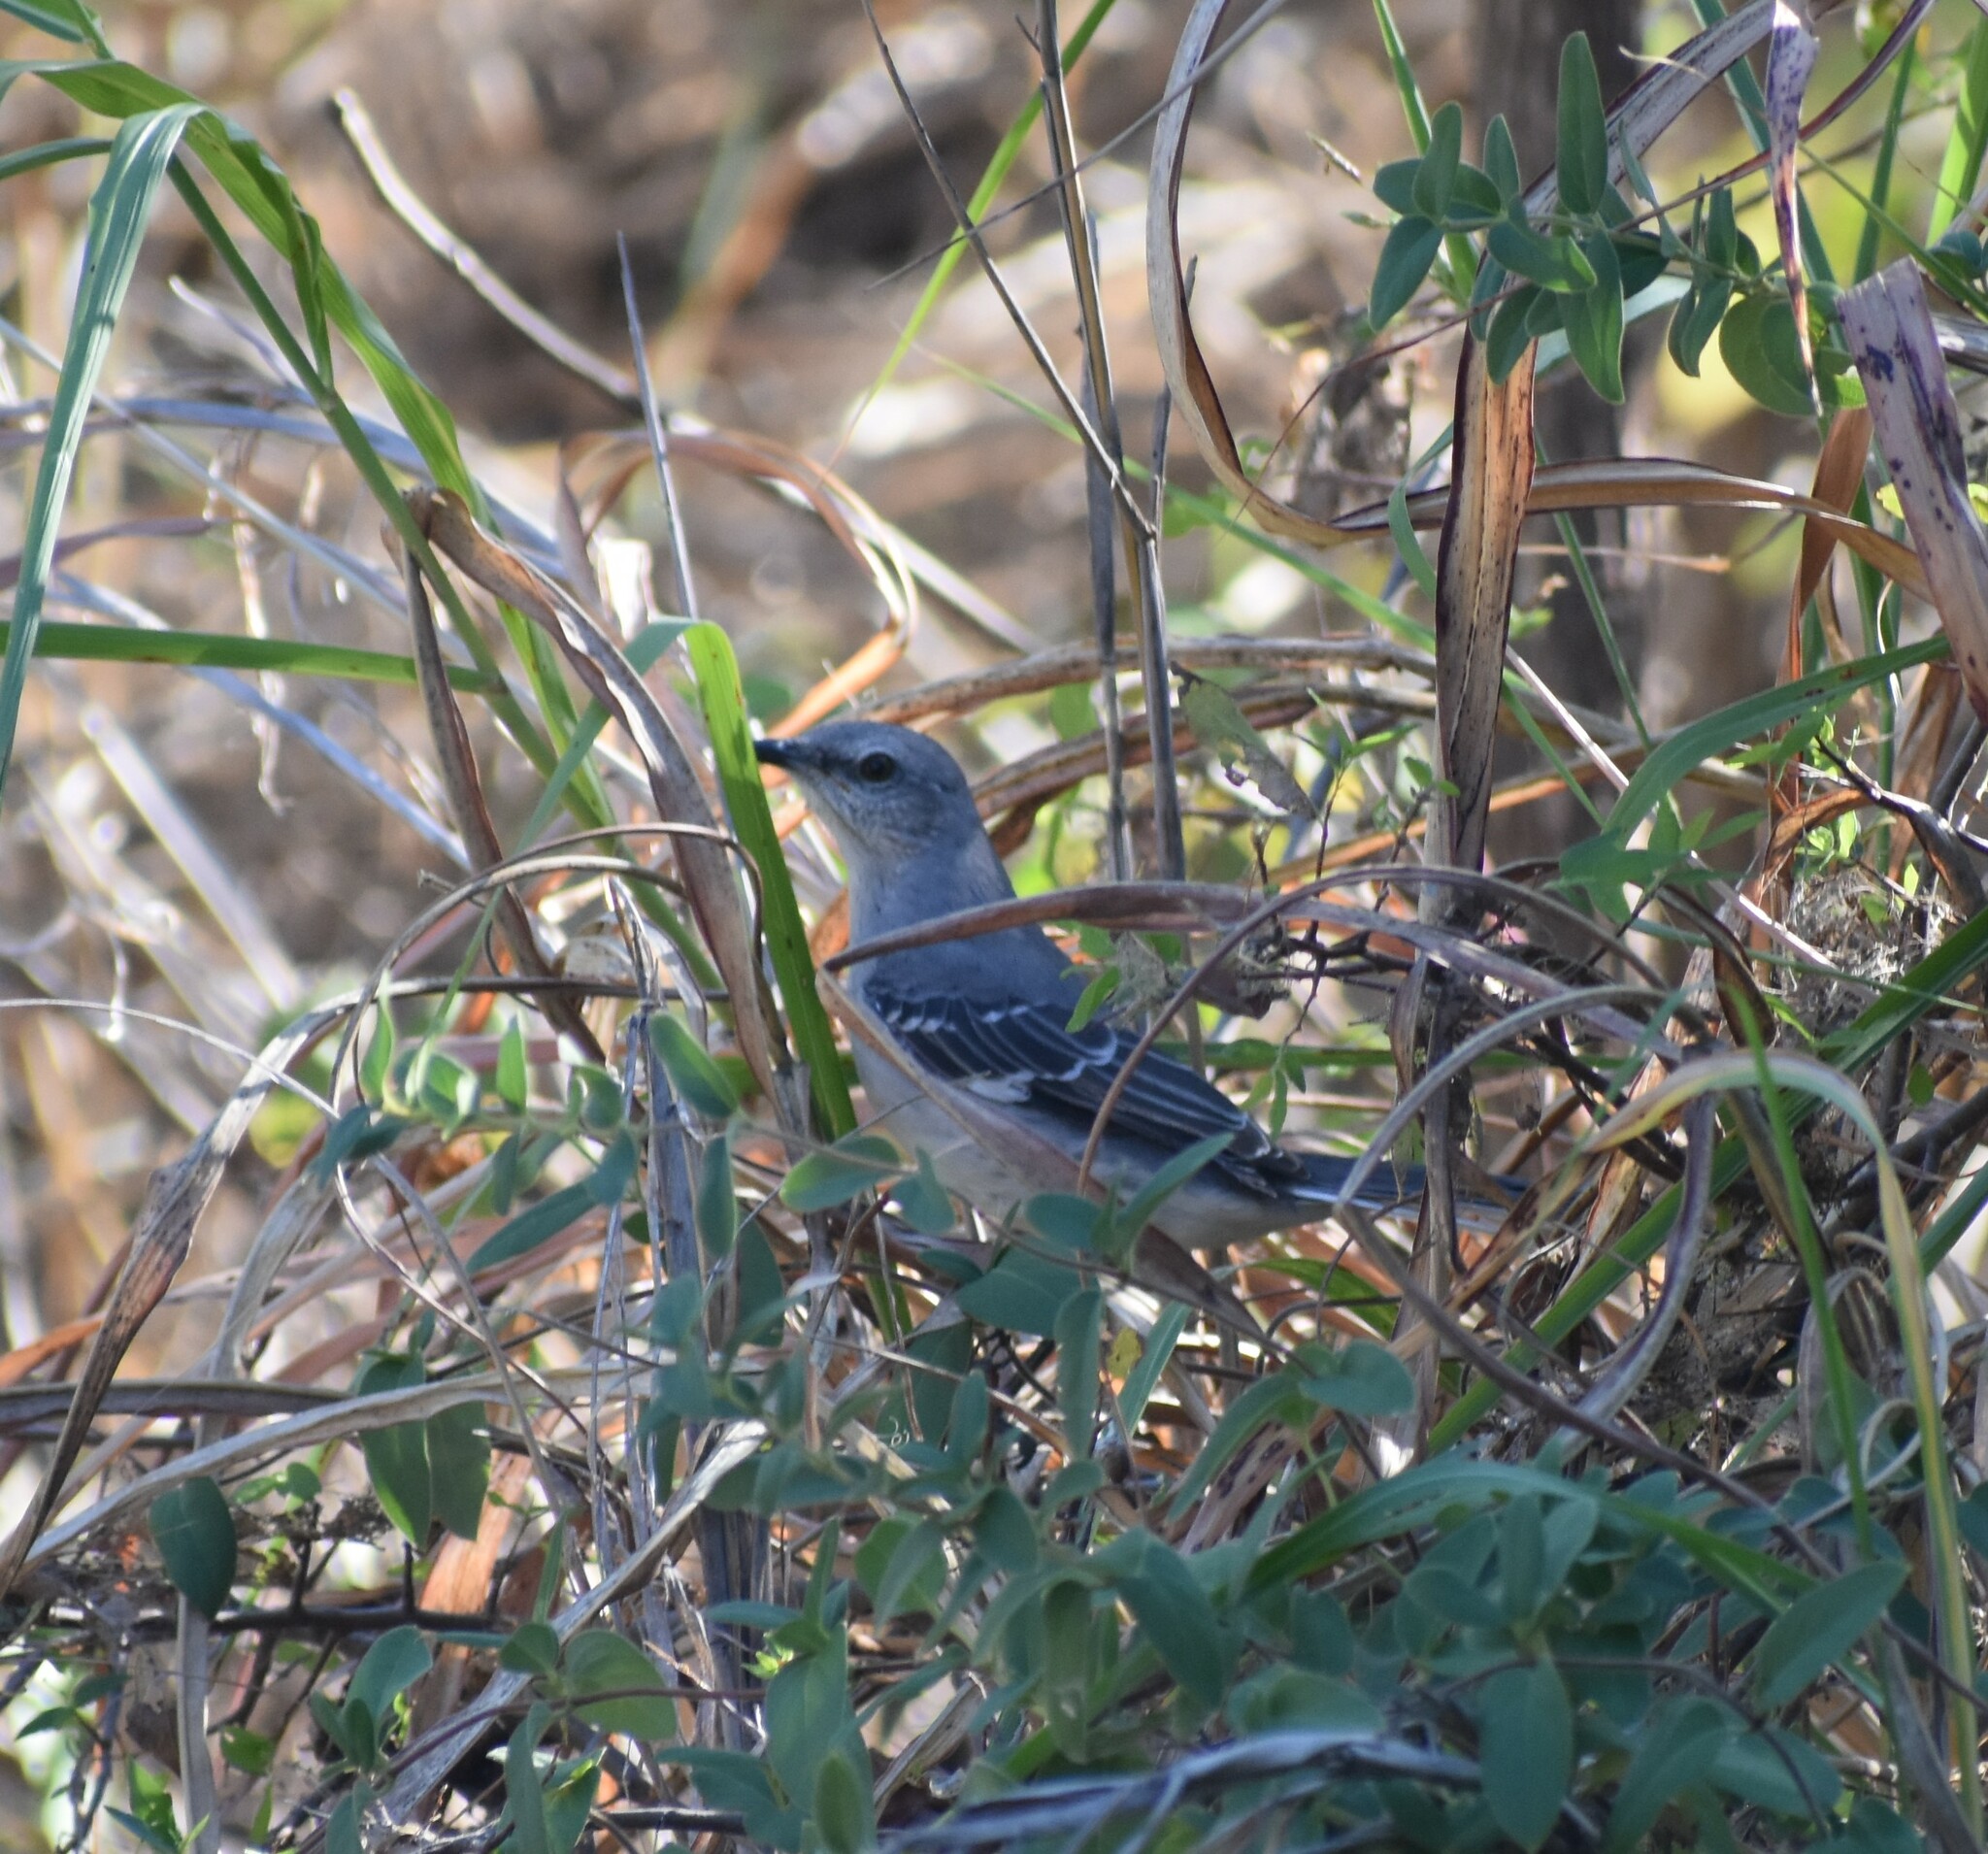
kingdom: Animalia
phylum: Chordata
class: Aves
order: Passeriformes
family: Mimidae
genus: Mimus
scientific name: Mimus polyglottos
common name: Northern mockingbird
